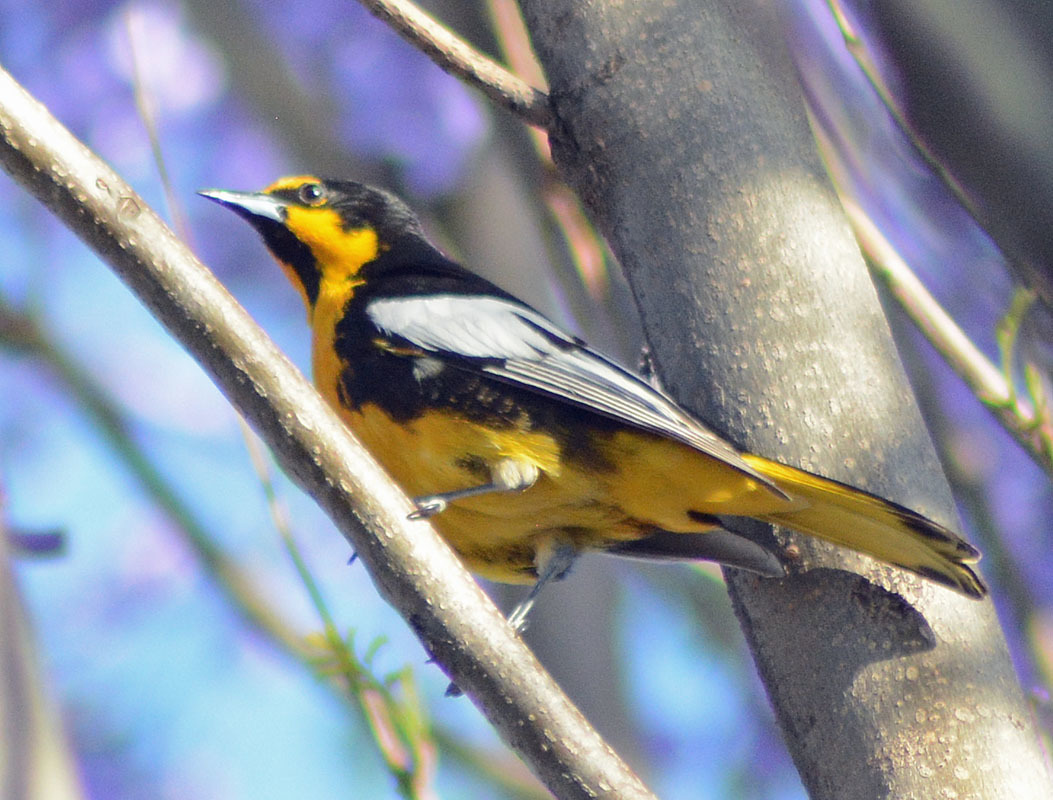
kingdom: Animalia
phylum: Chordata
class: Aves
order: Passeriformes
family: Icteridae
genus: Icterus
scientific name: Icterus abeillei
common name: Black-backed oriole
